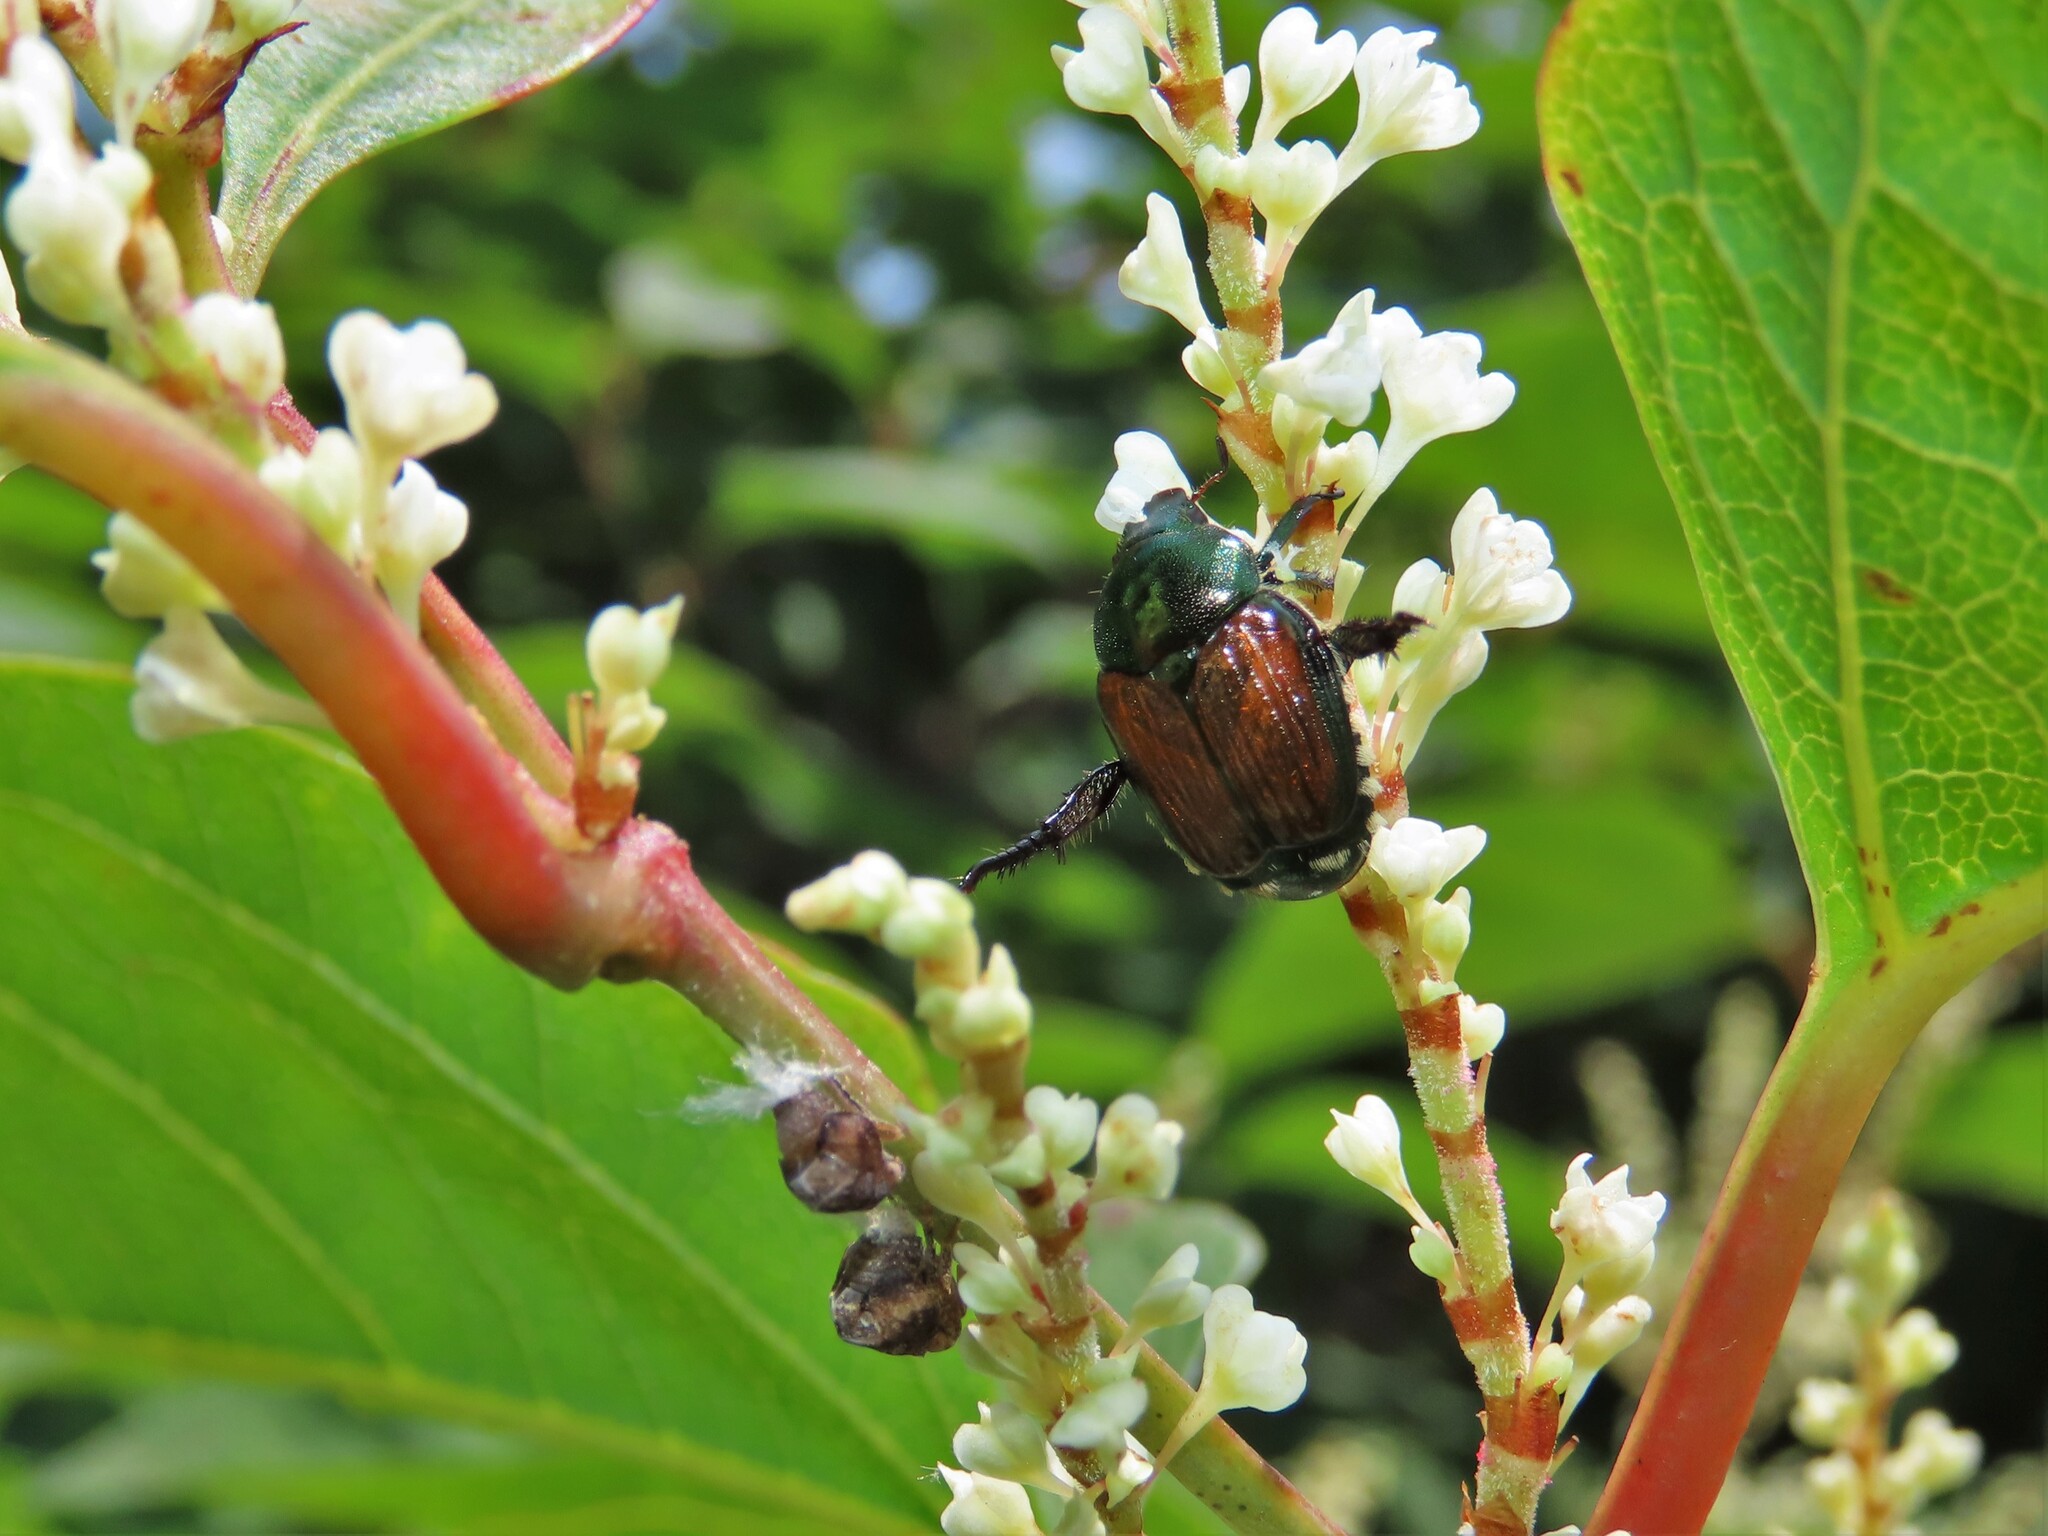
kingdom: Animalia
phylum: Arthropoda
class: Insecta
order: Coleoptera
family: Scarabaeidae
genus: Popillia
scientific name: Popillia japonica
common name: Japanese beetle
